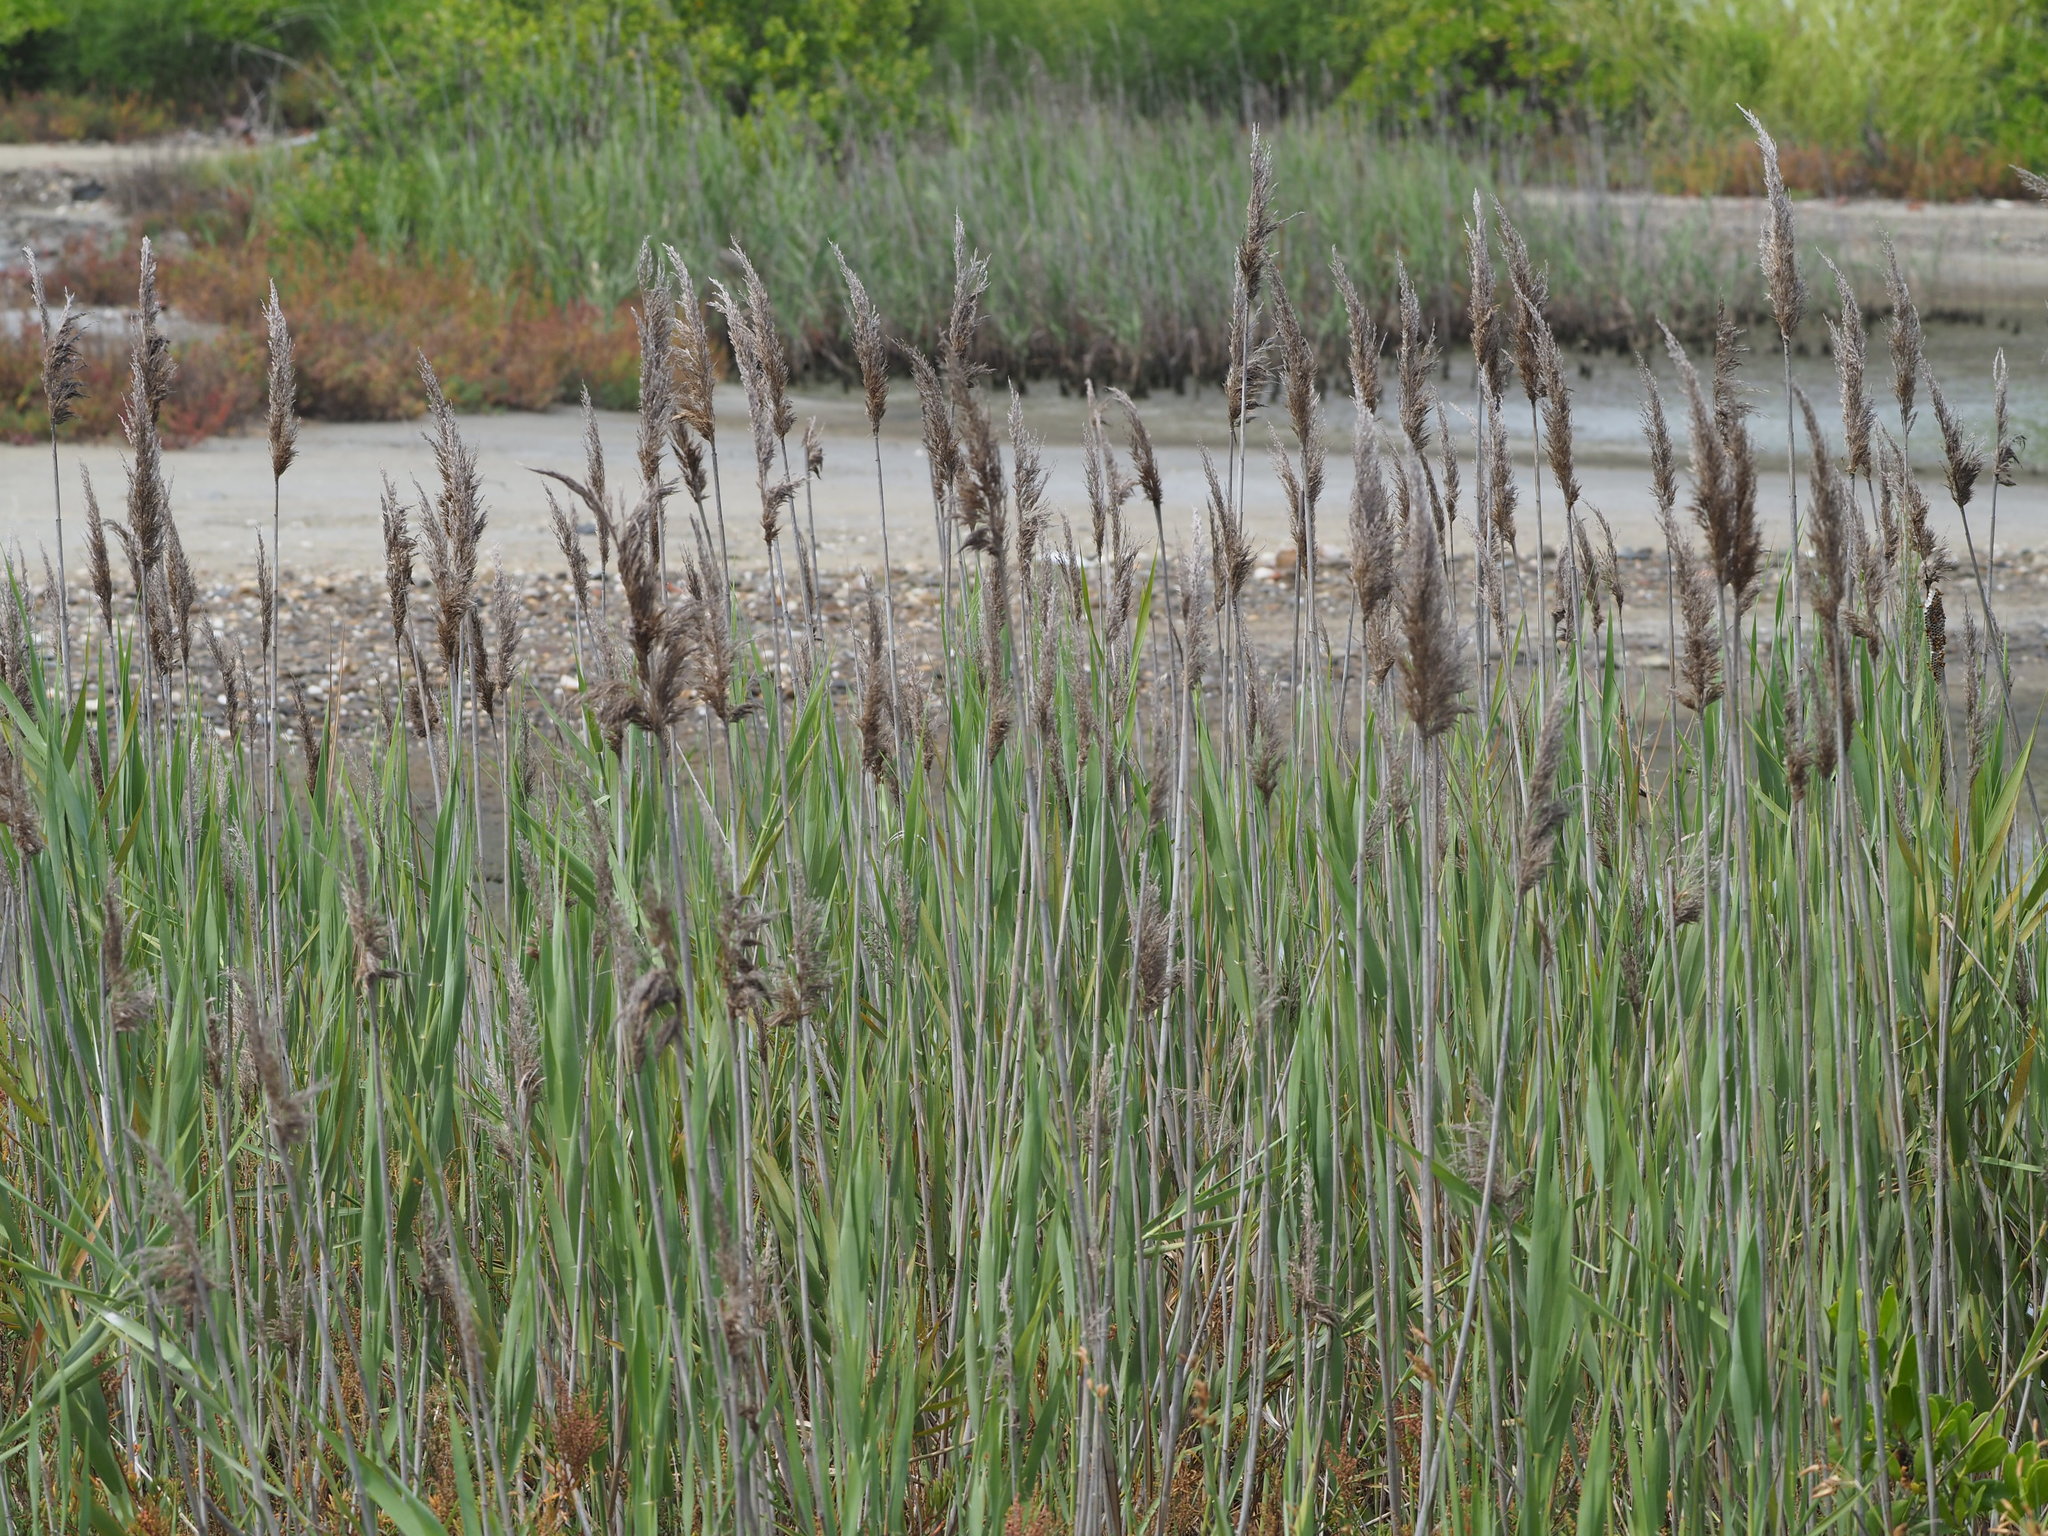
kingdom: Plantae
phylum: Tracheophyta
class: Liliopsida
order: Poales
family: Poaceae
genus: Phragmites
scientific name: Phragmites australis
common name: Common reed
